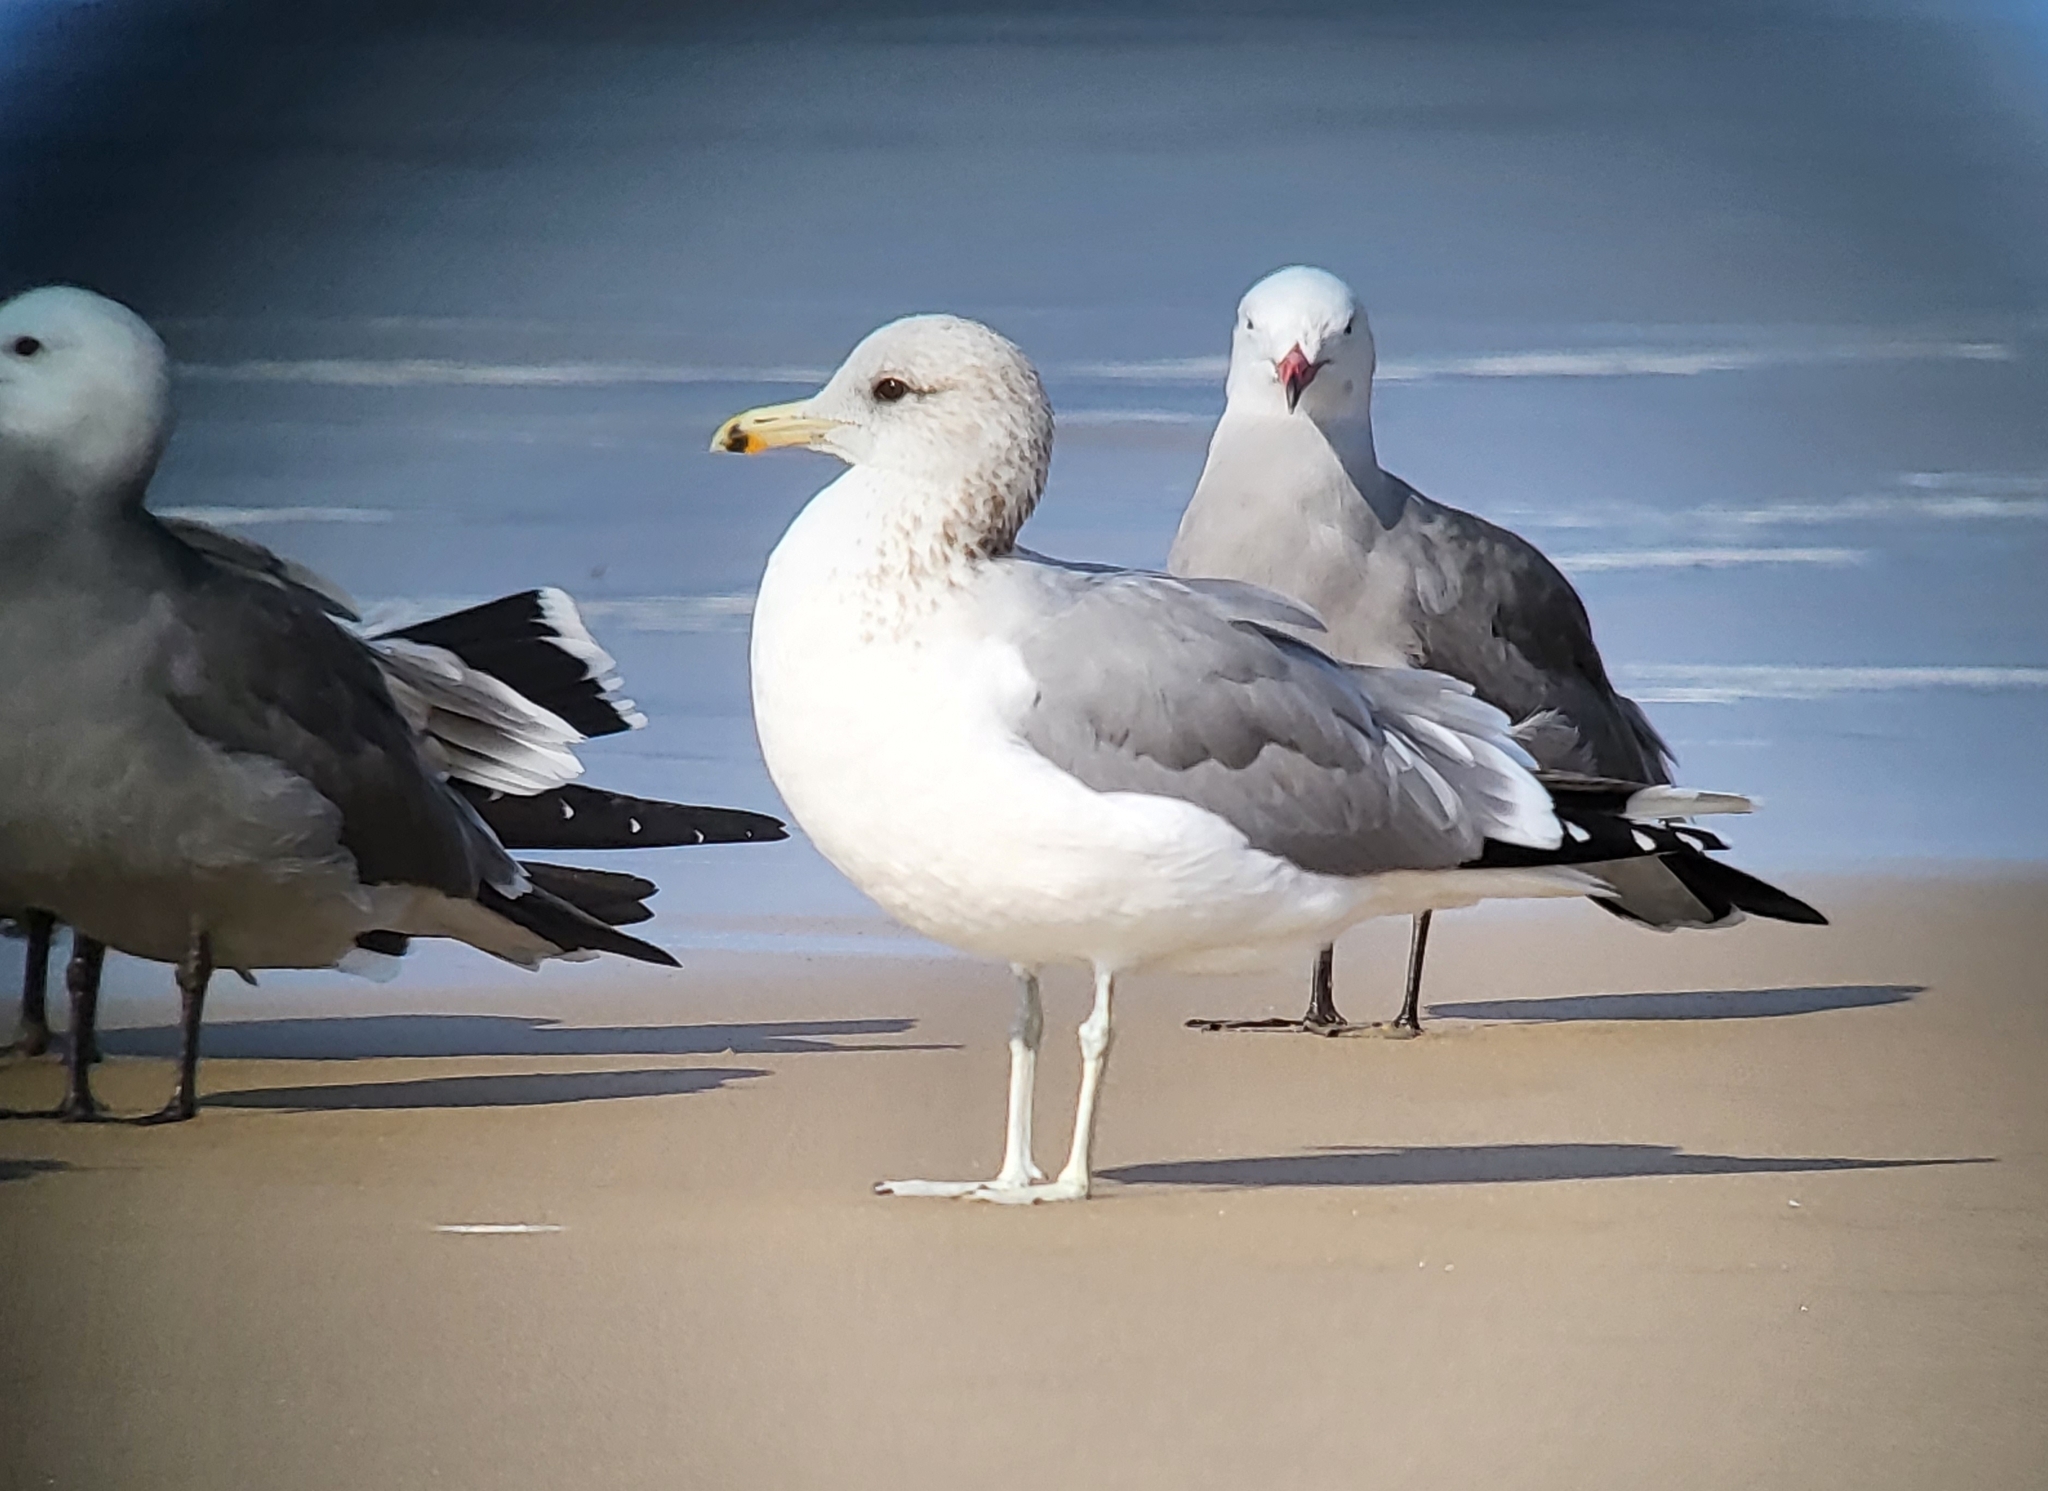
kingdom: Animalia
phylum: Chordata
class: Aves
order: Charadriiformes
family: Laridae
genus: Larus
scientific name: Larus californicus
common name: California gull
